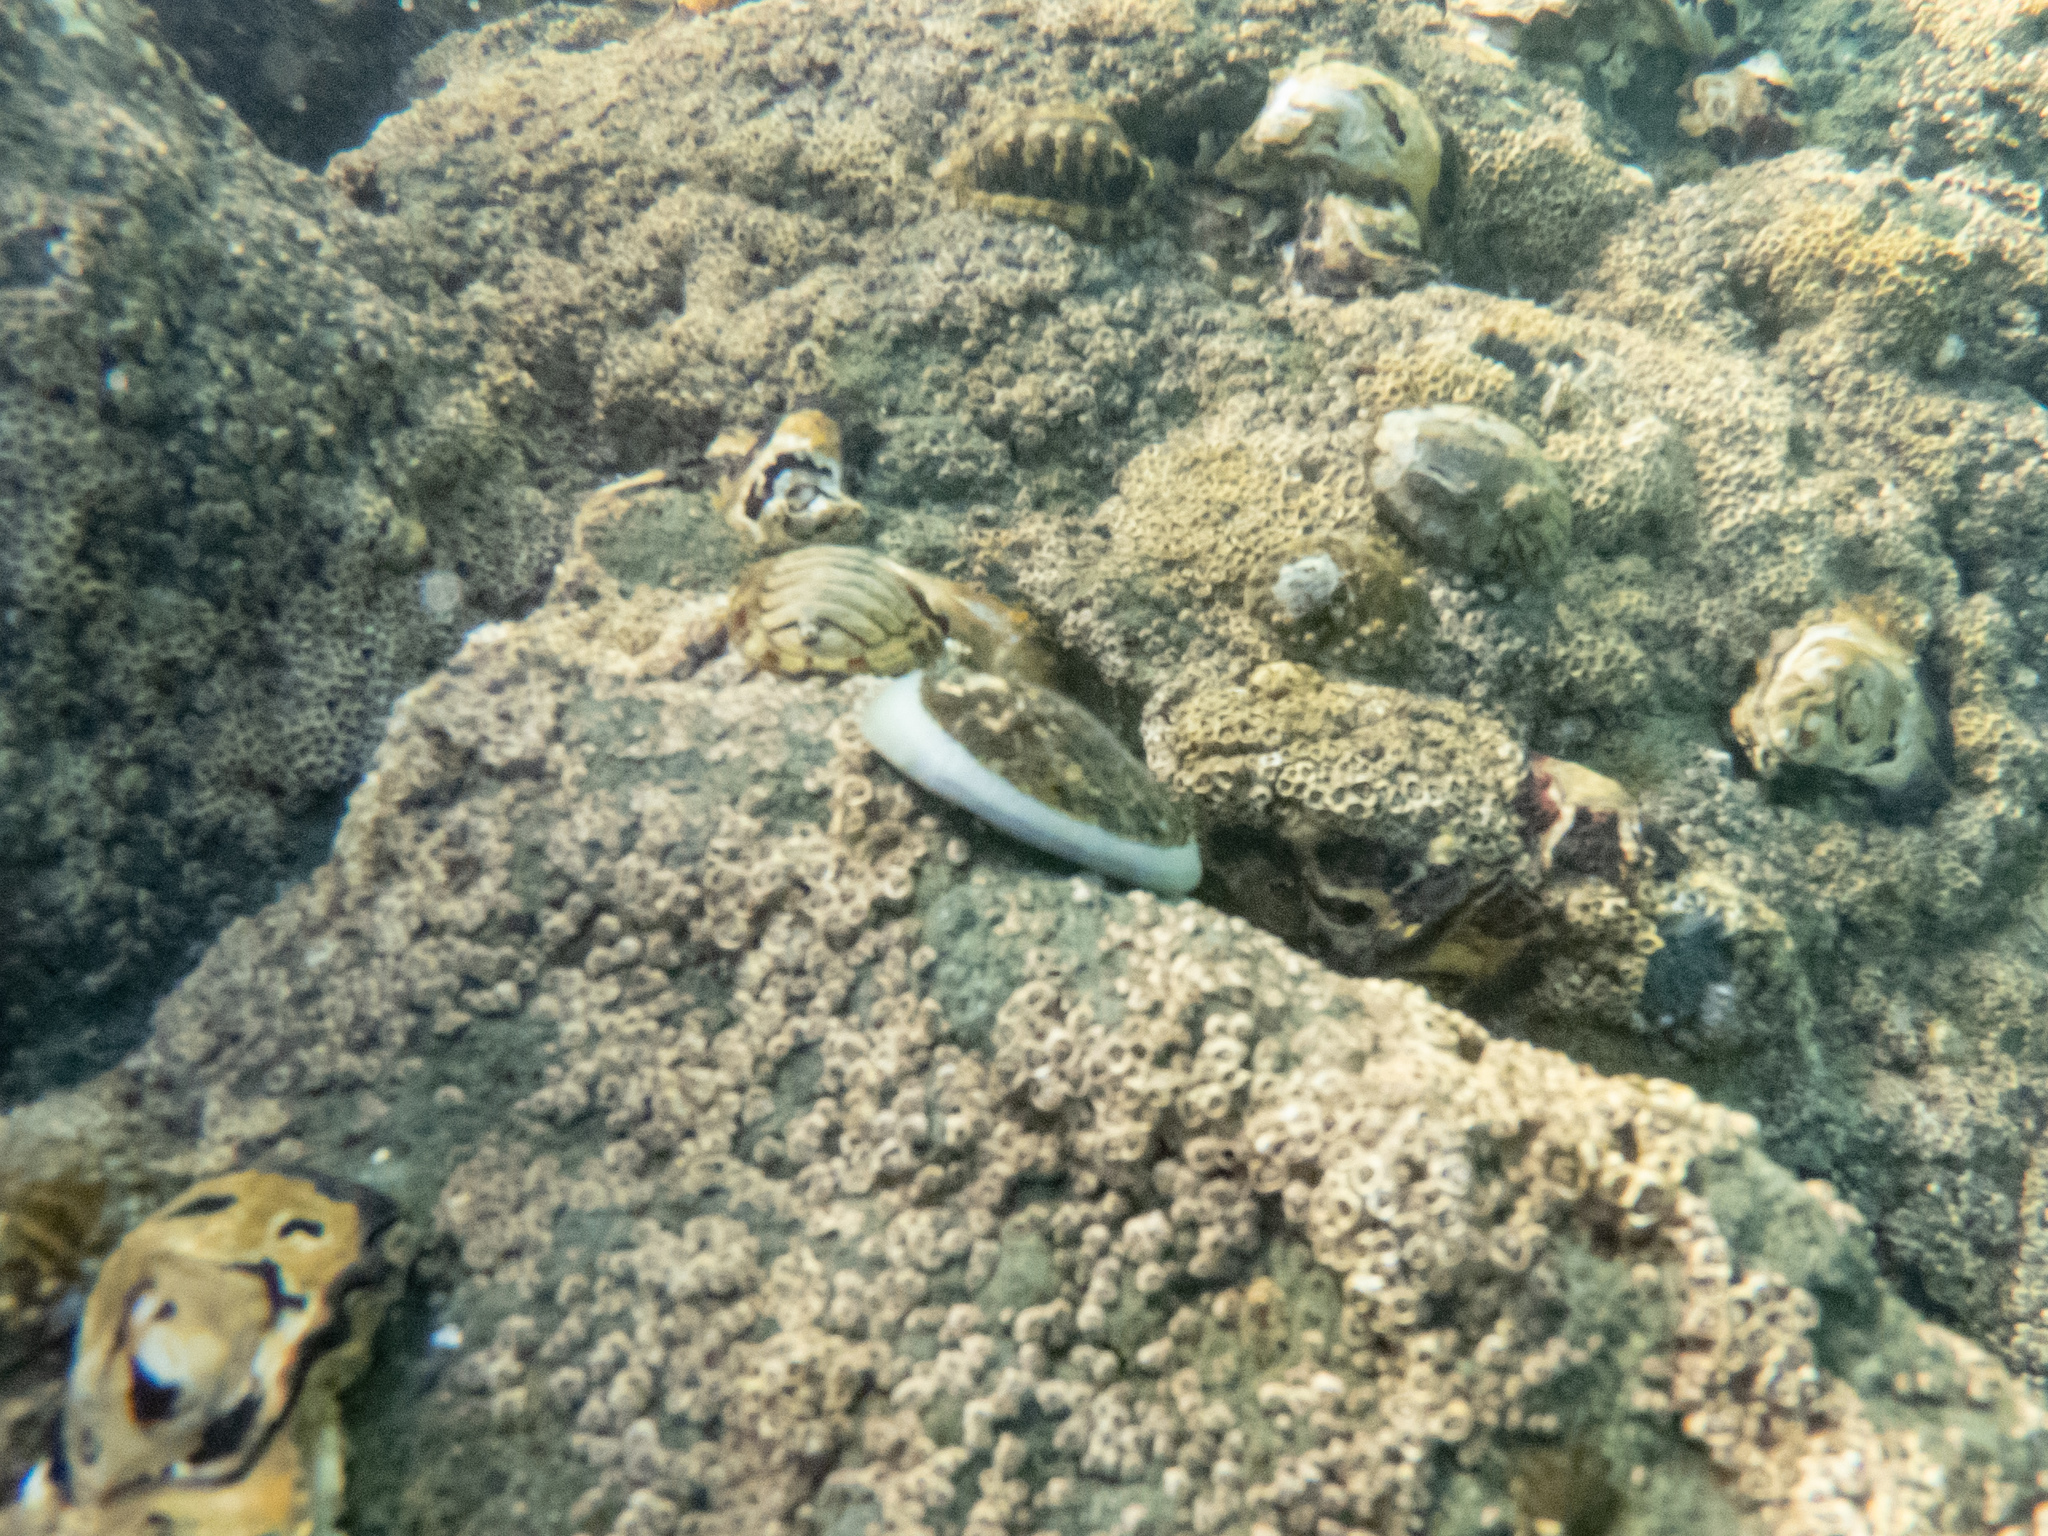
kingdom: Animalia
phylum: Mollusca
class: Gastropoda
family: Nacellidae
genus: Cellana
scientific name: Cellana radians
